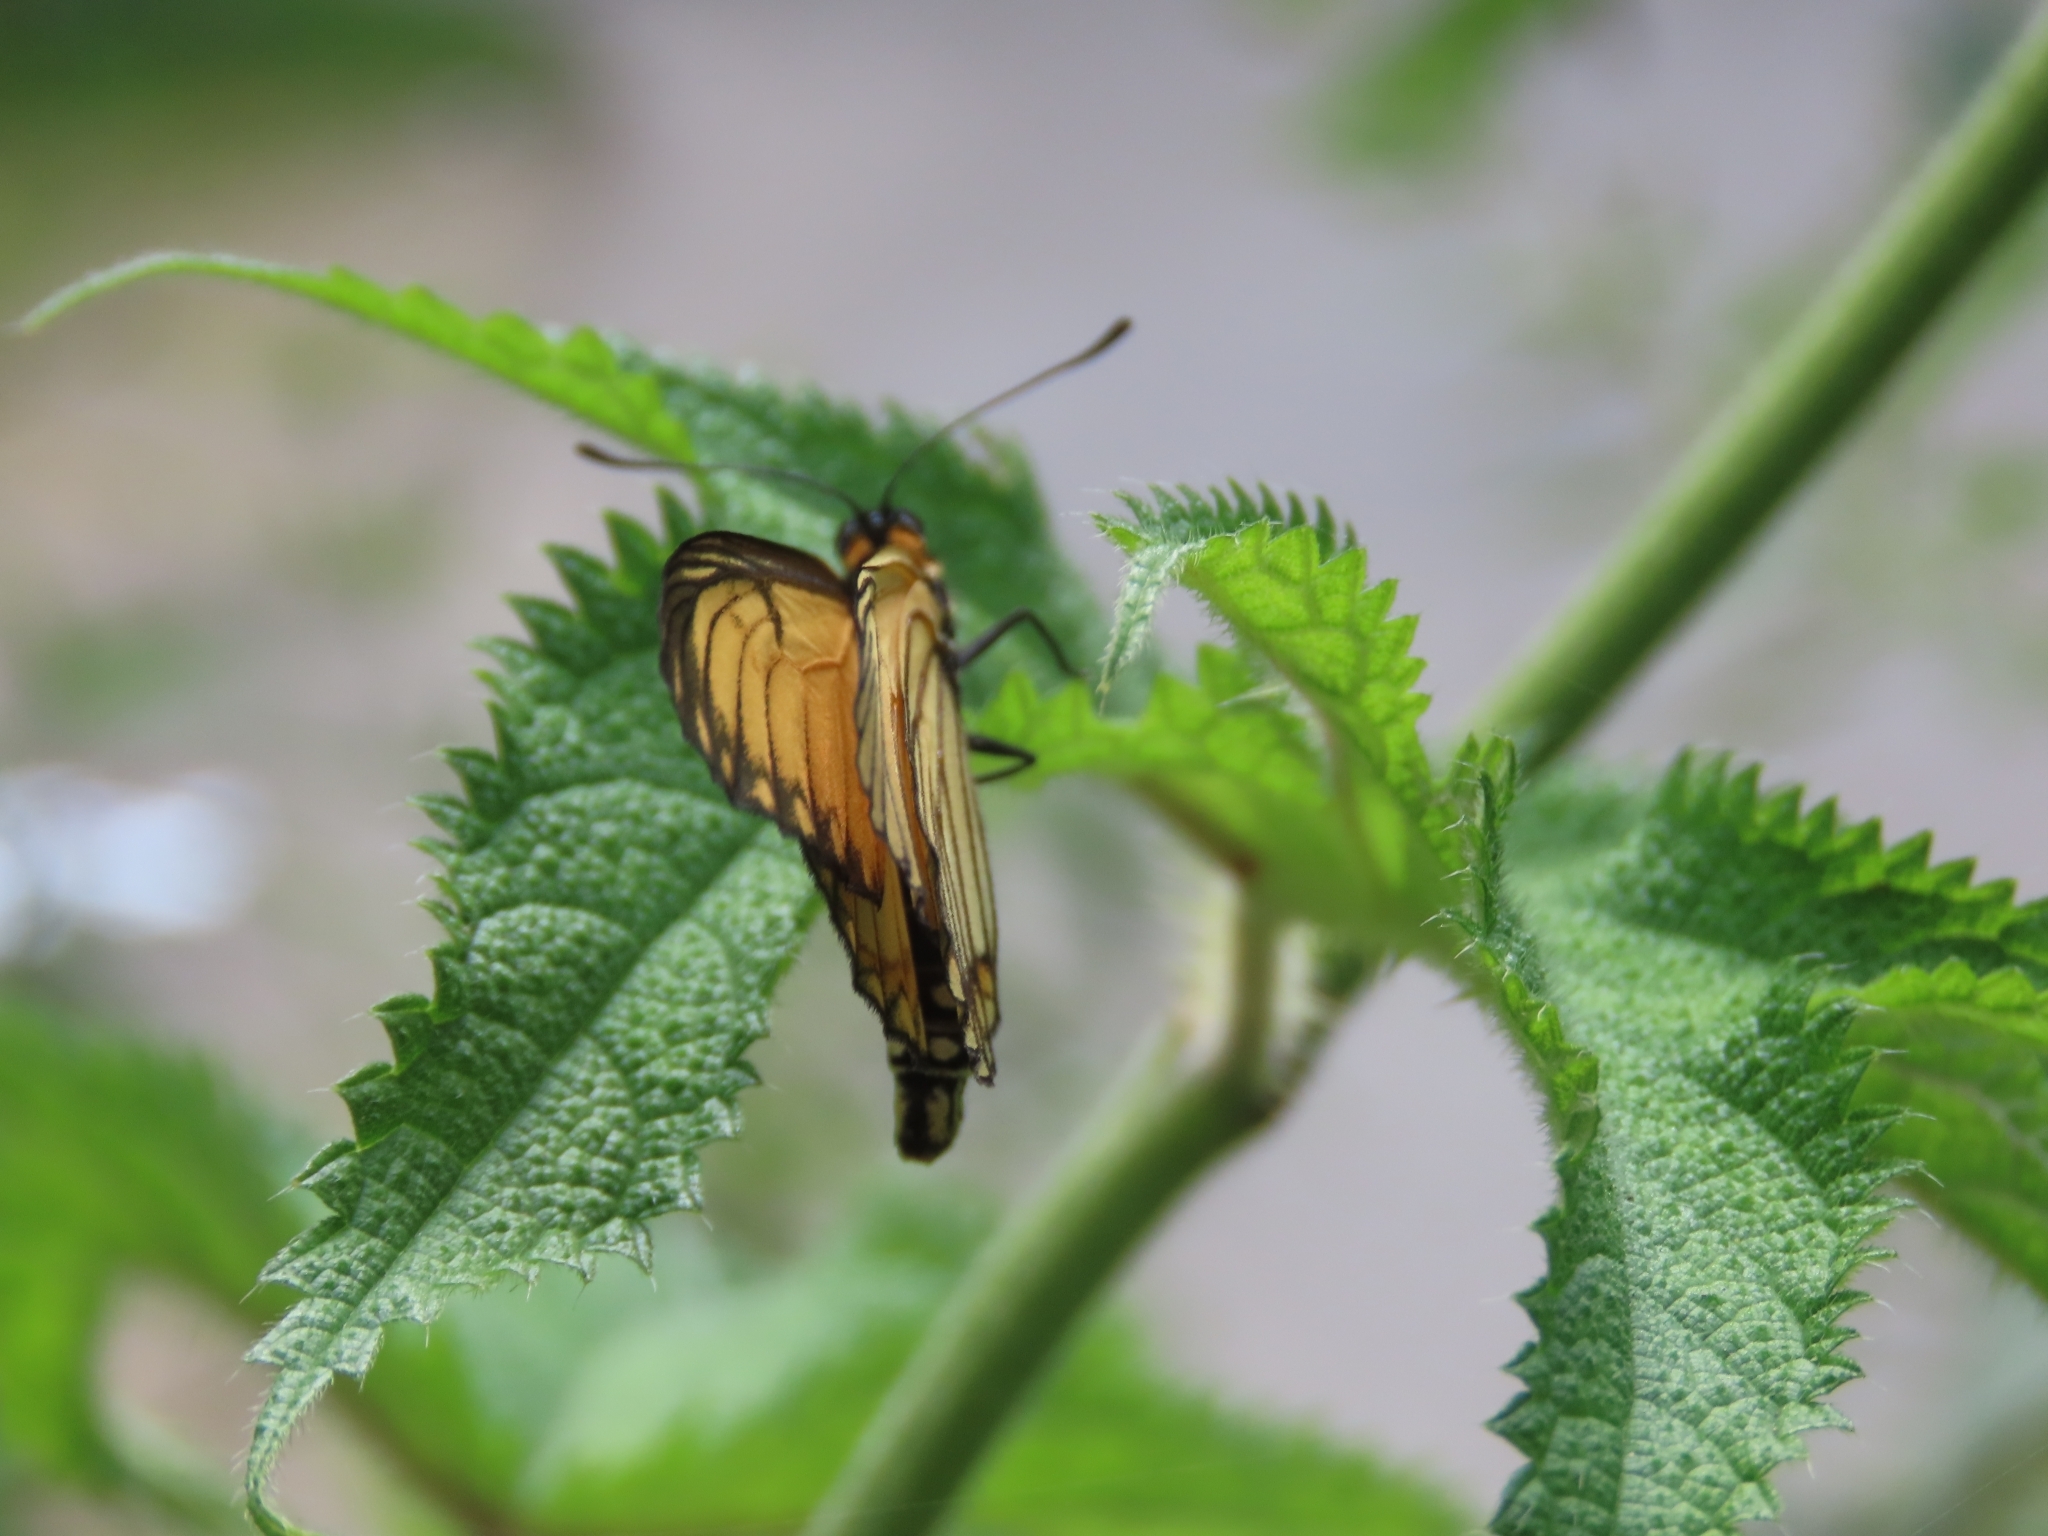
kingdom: Animalia
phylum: Arthropoda
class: Insecta
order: Lepidoptera
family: Nymphalidae
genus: Acraea
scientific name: Acraea Telchinia issoria
